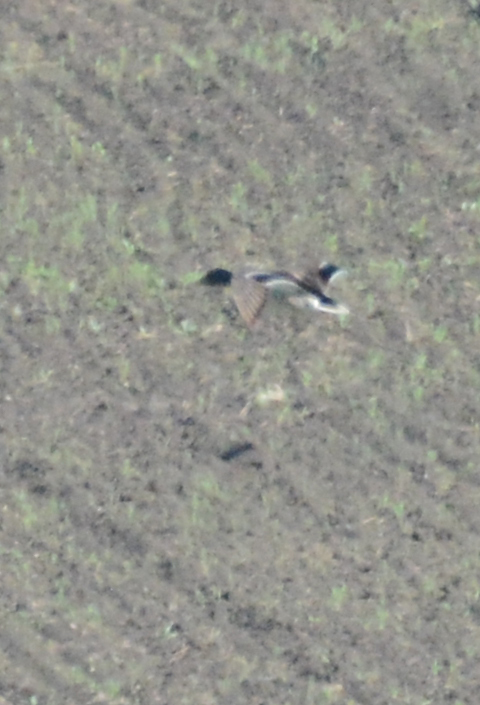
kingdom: Animalia
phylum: Chordata
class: Aves
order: Anseriformes
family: Anatidae
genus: Anas
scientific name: Anas platyrhynchos
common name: Mallard
